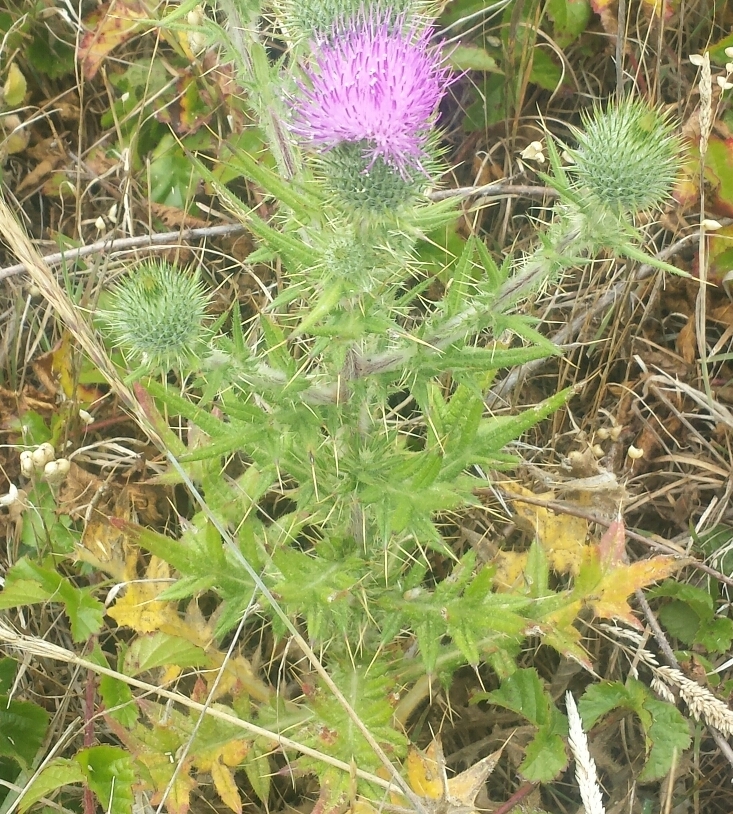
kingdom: Plantae
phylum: Tracheophyta
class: Magnoliopsida
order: Asterales
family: Asteraceae
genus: Cirsium
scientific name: Cirsium vulgare
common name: Bull thistle
